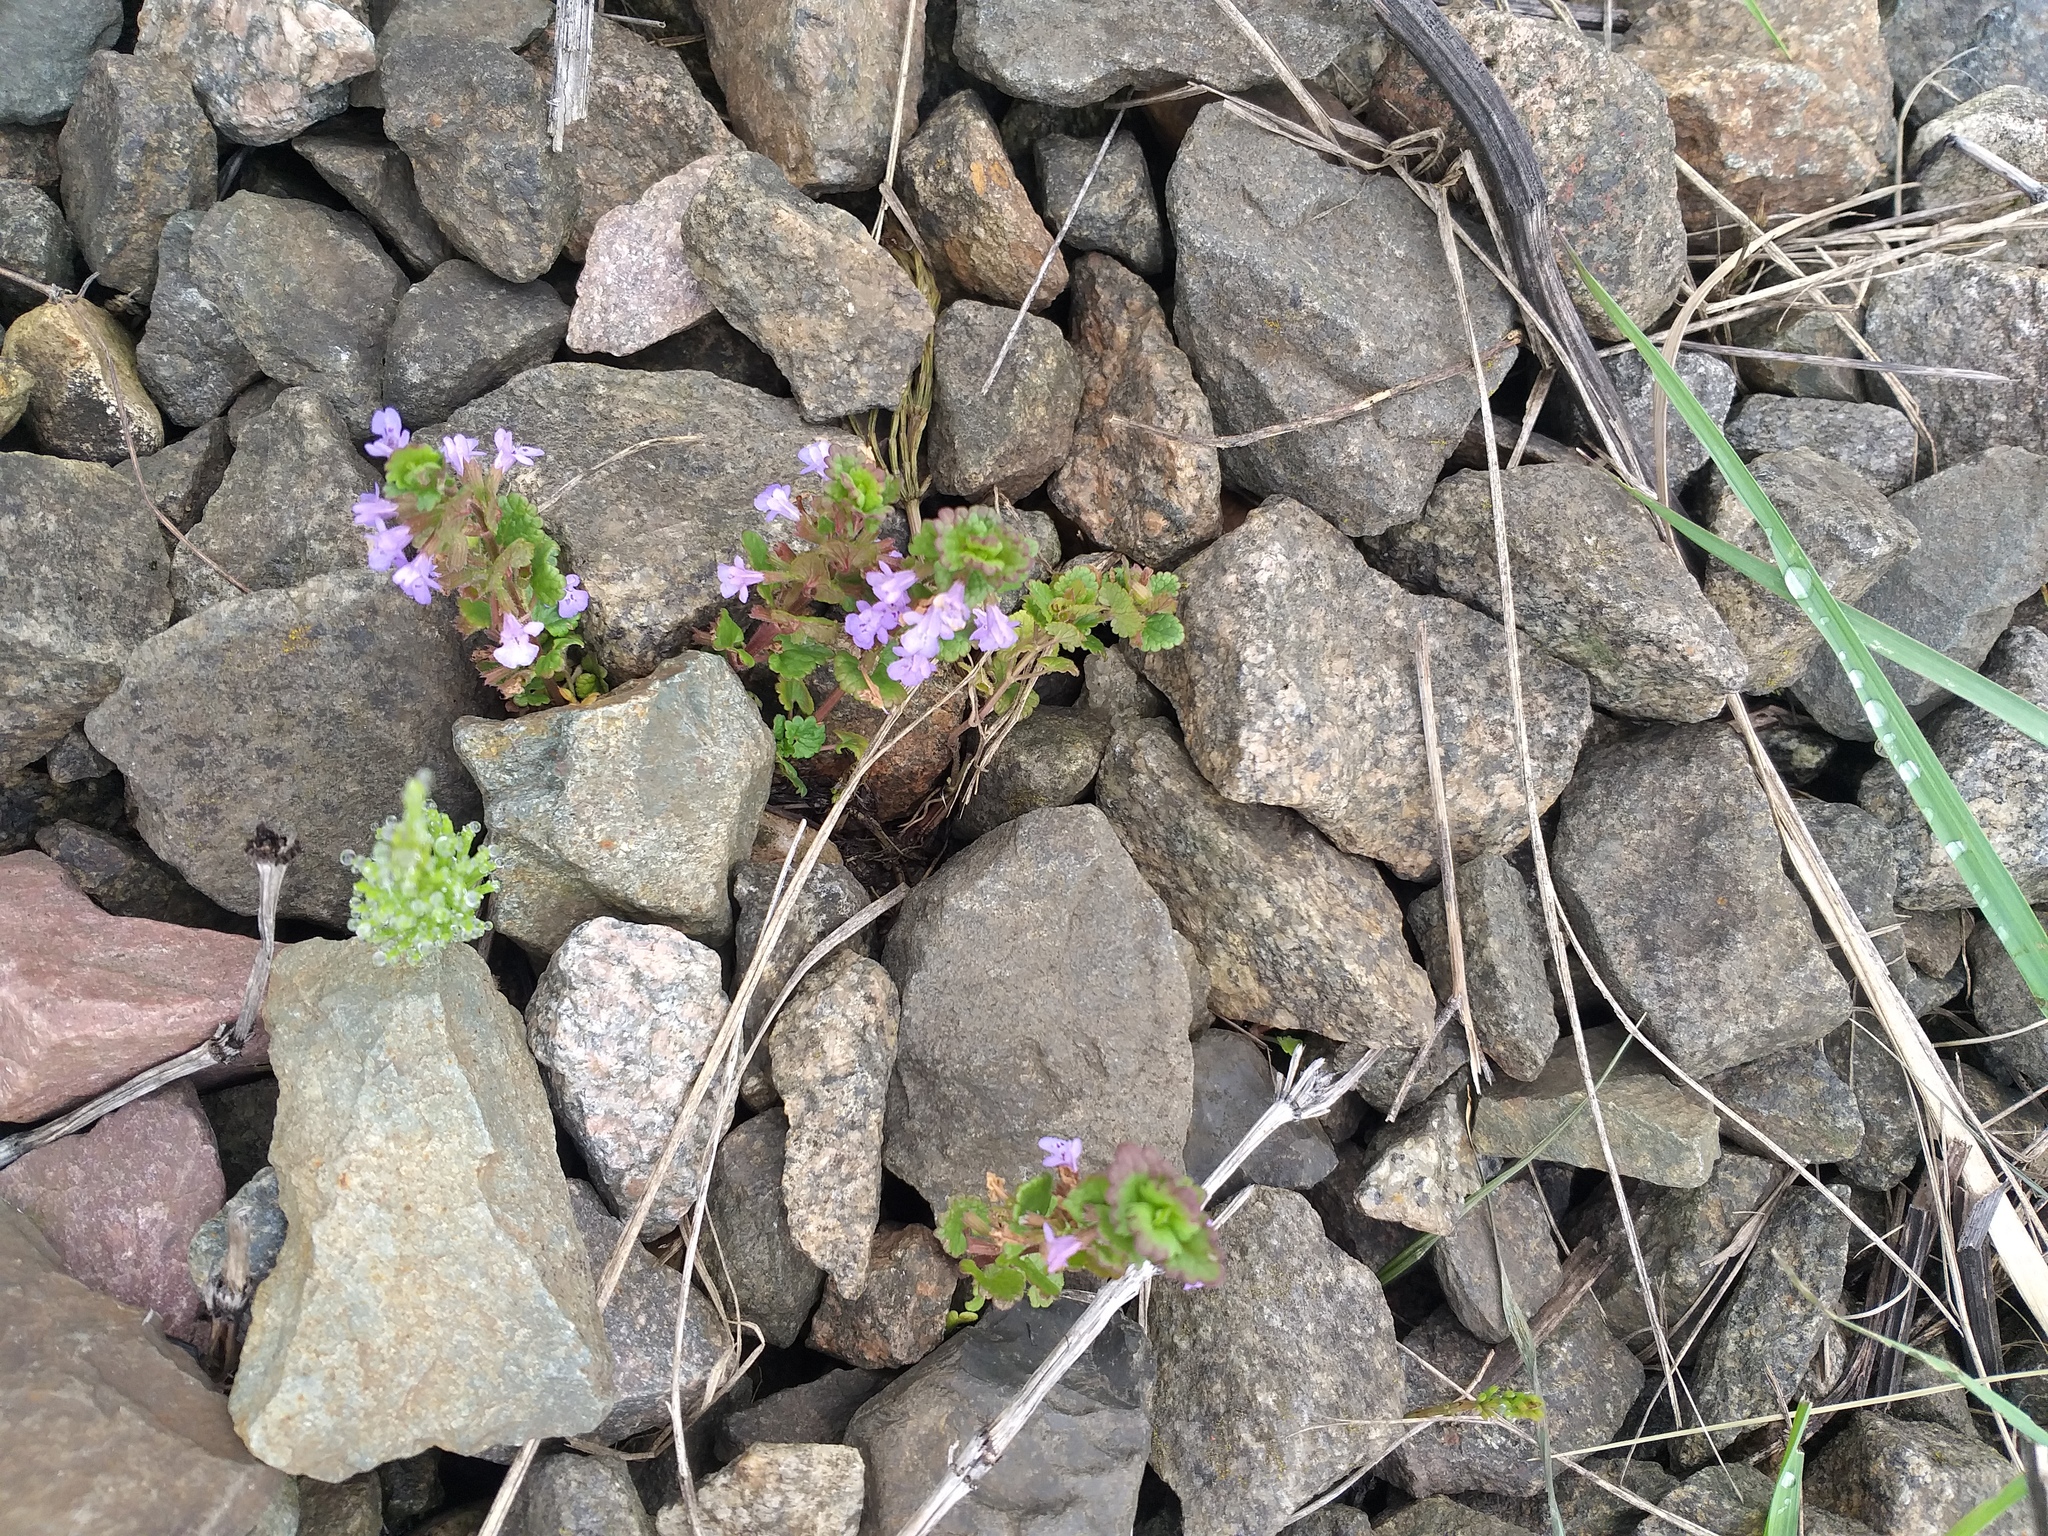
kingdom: Plantae
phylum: Tracheophyta
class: Magnoliopsida
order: Lamiales
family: Lamiaceae
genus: Glechoma
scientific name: Glechoma hederacea
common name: Ground ivy
